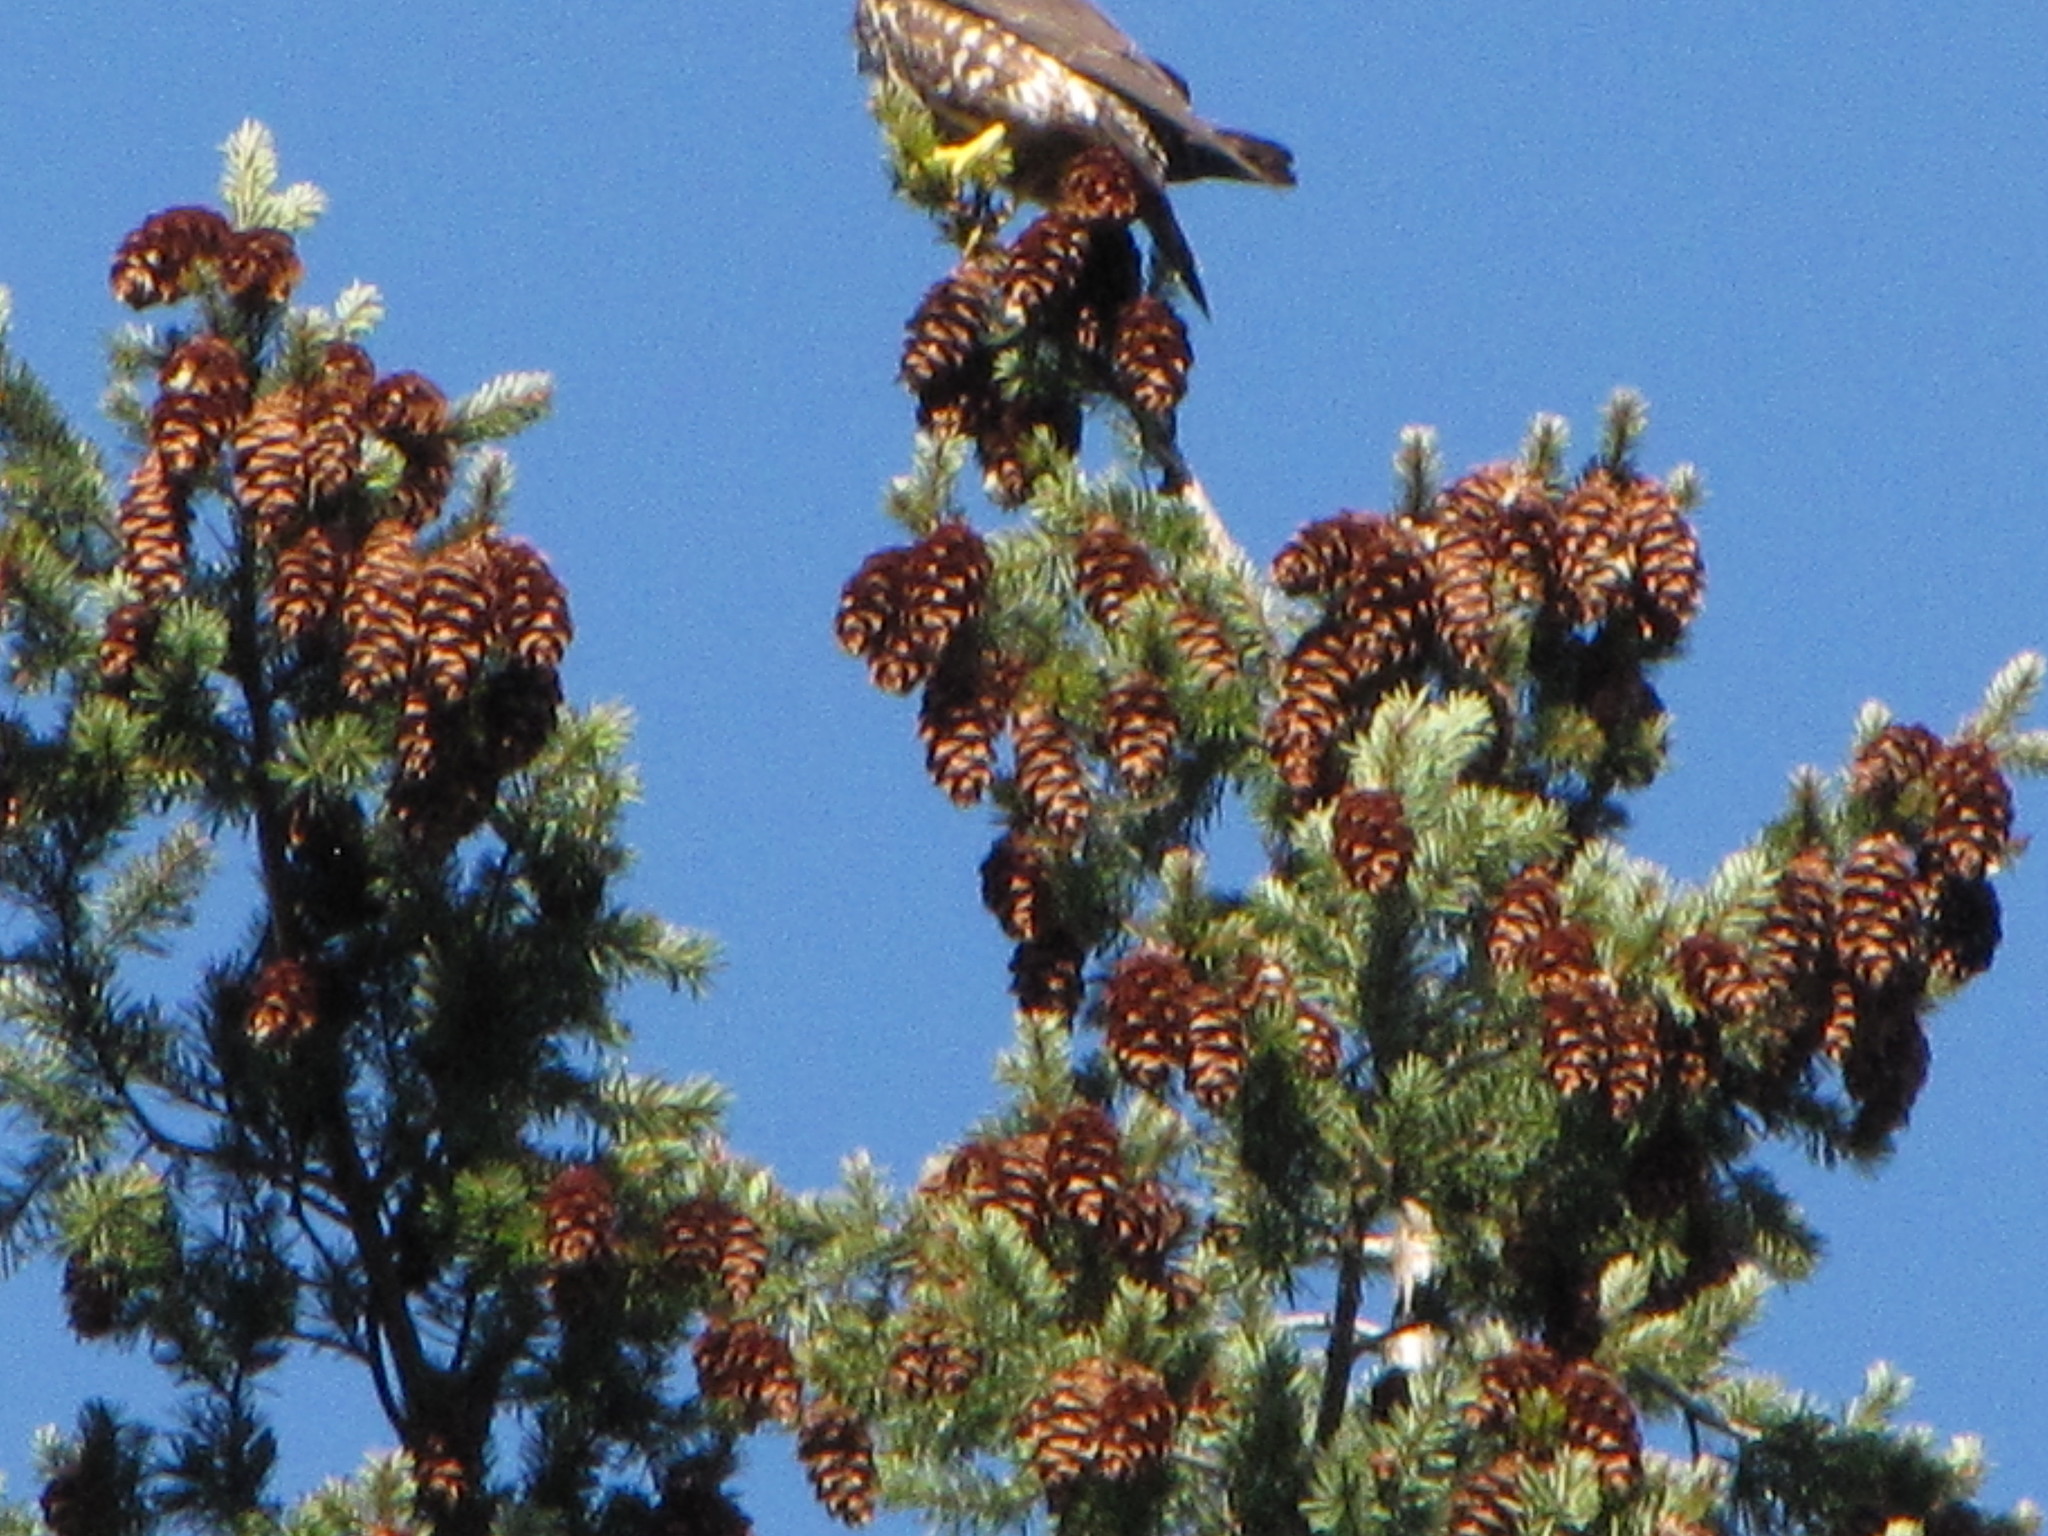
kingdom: Animalia
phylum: Chordata
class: Aves
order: Falconiformes
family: Falconidae
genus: Falco
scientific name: Falco columbarius
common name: Merlin
